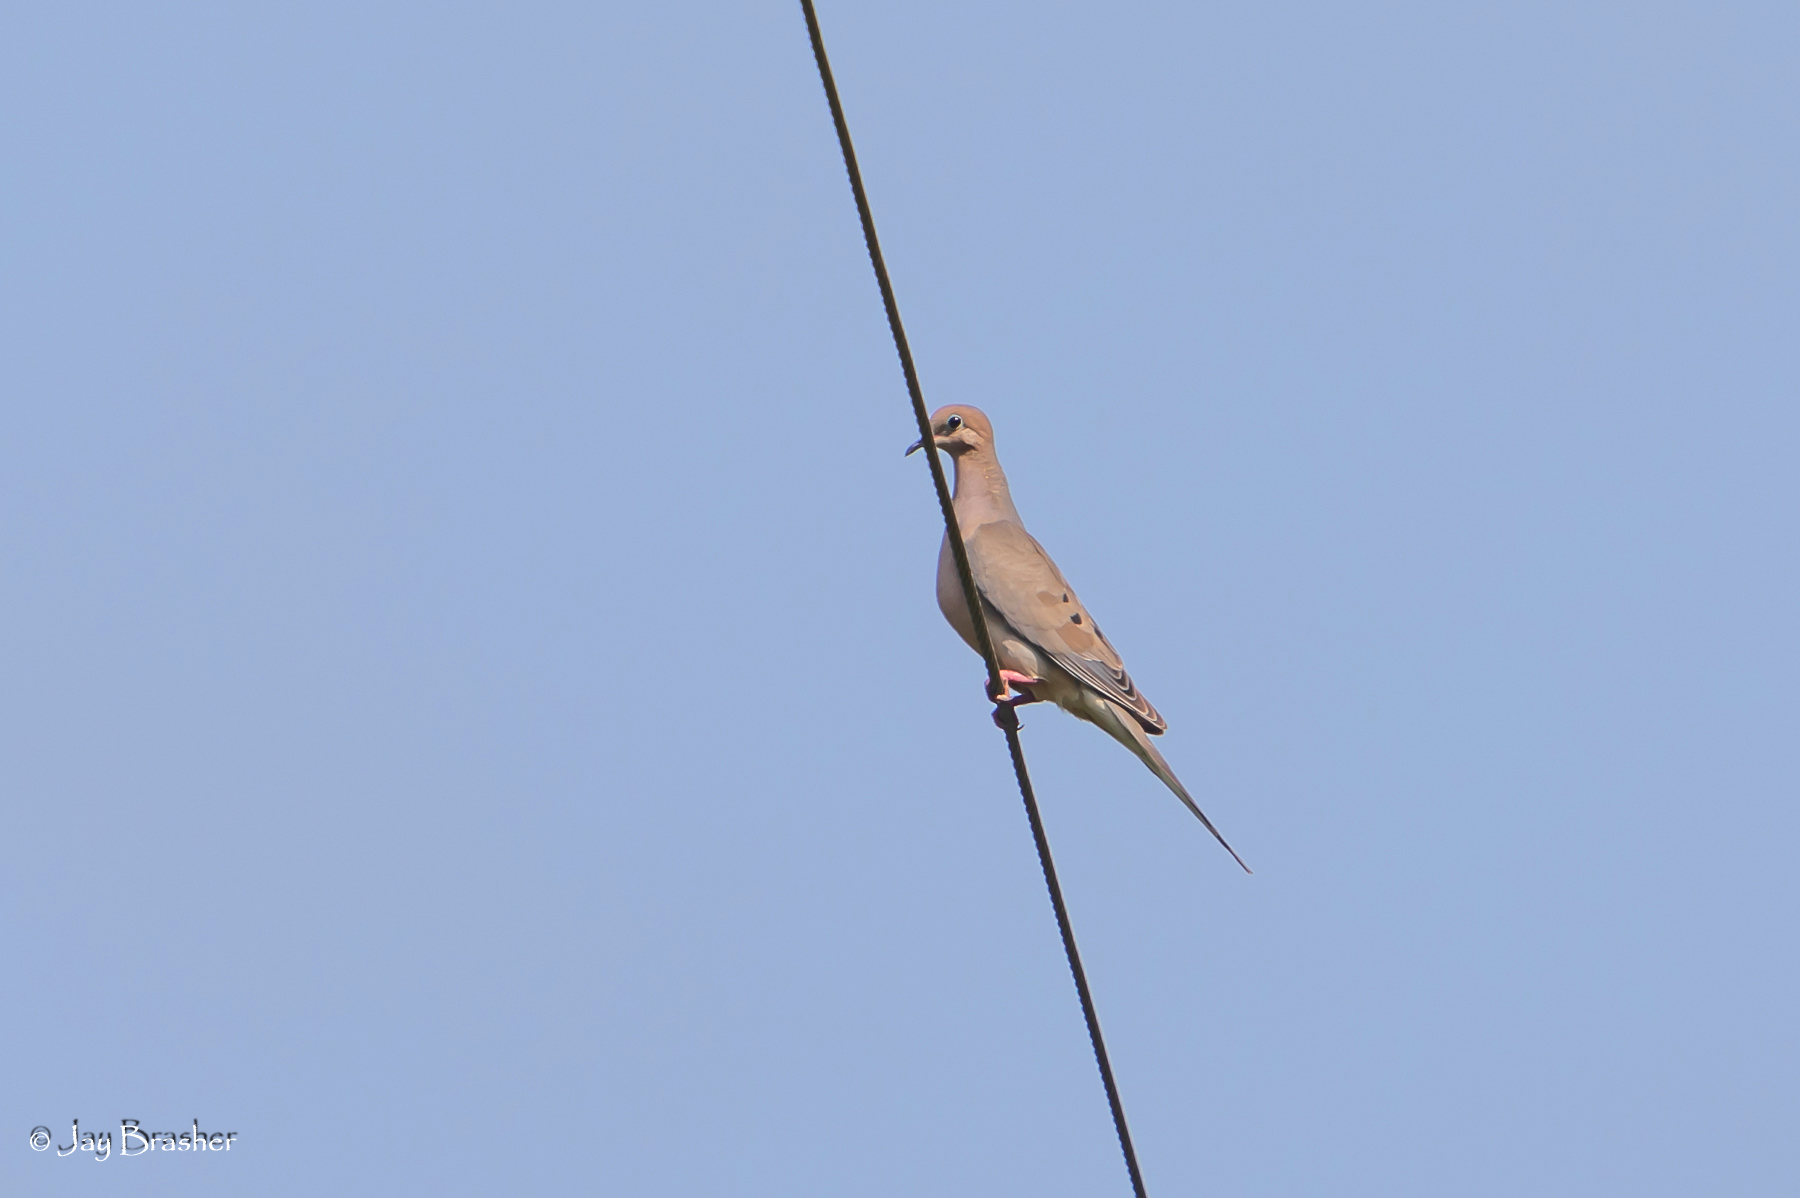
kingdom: Animalia
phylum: Chordata
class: Aves
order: Columbiformes
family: Columbidae
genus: Zenaida
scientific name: Zenaida macroura
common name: Mourning dove
